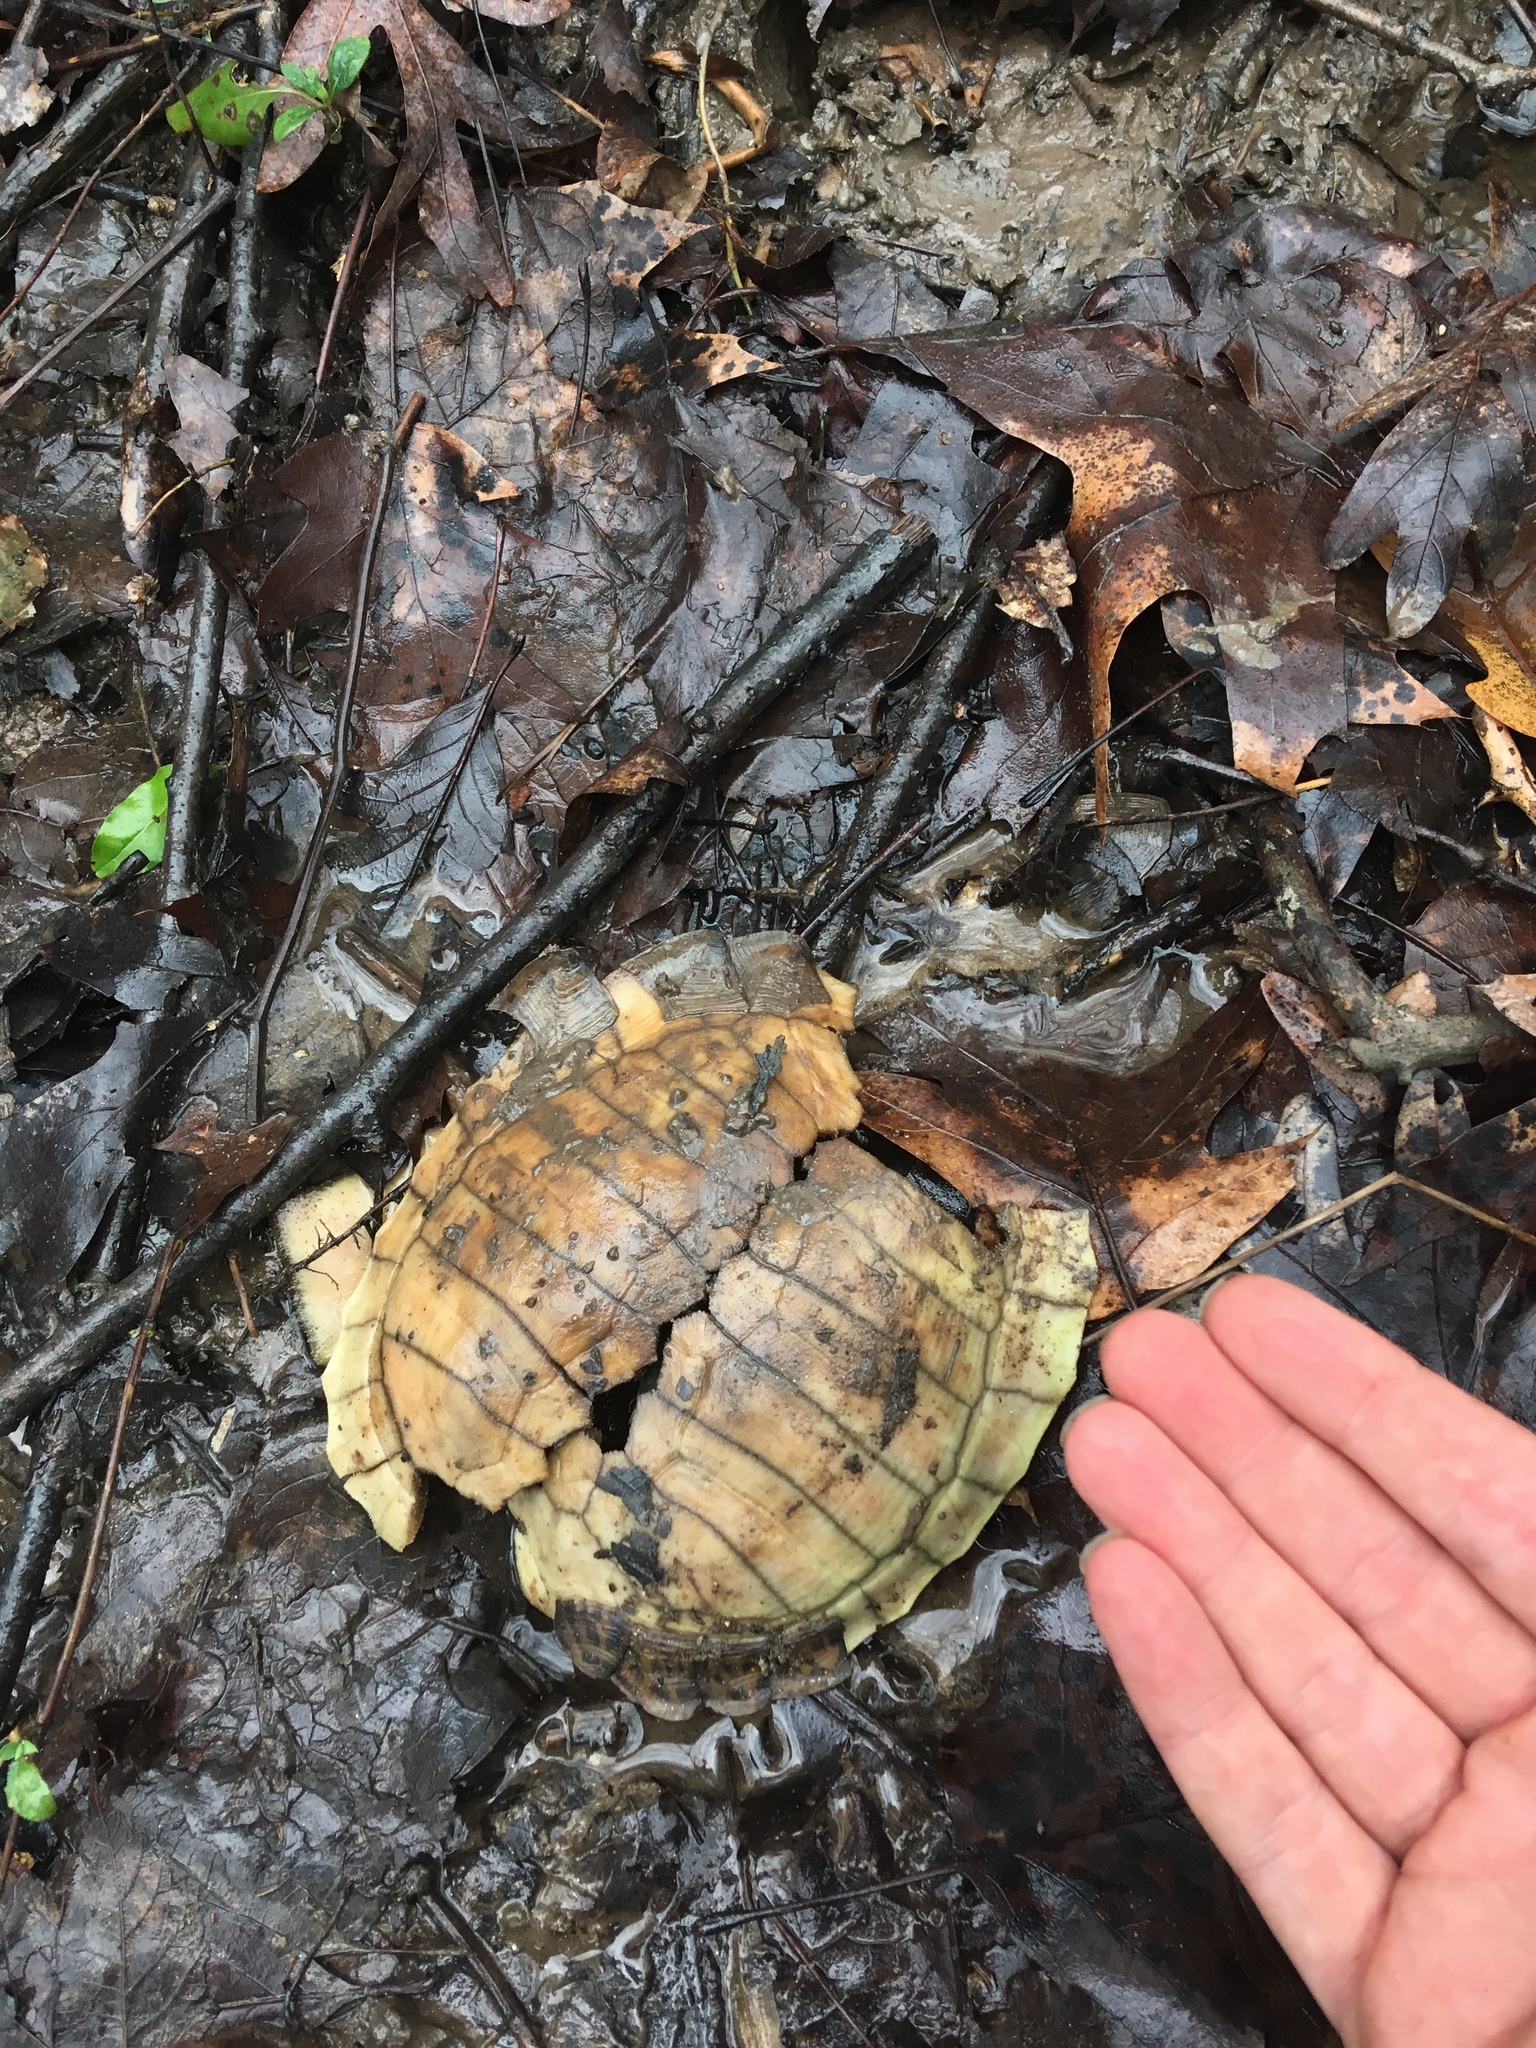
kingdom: Animalia
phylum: Chordata
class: Testudines
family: Emydidae
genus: Terrapene
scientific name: Terrapene carolina
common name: Common box turtle
